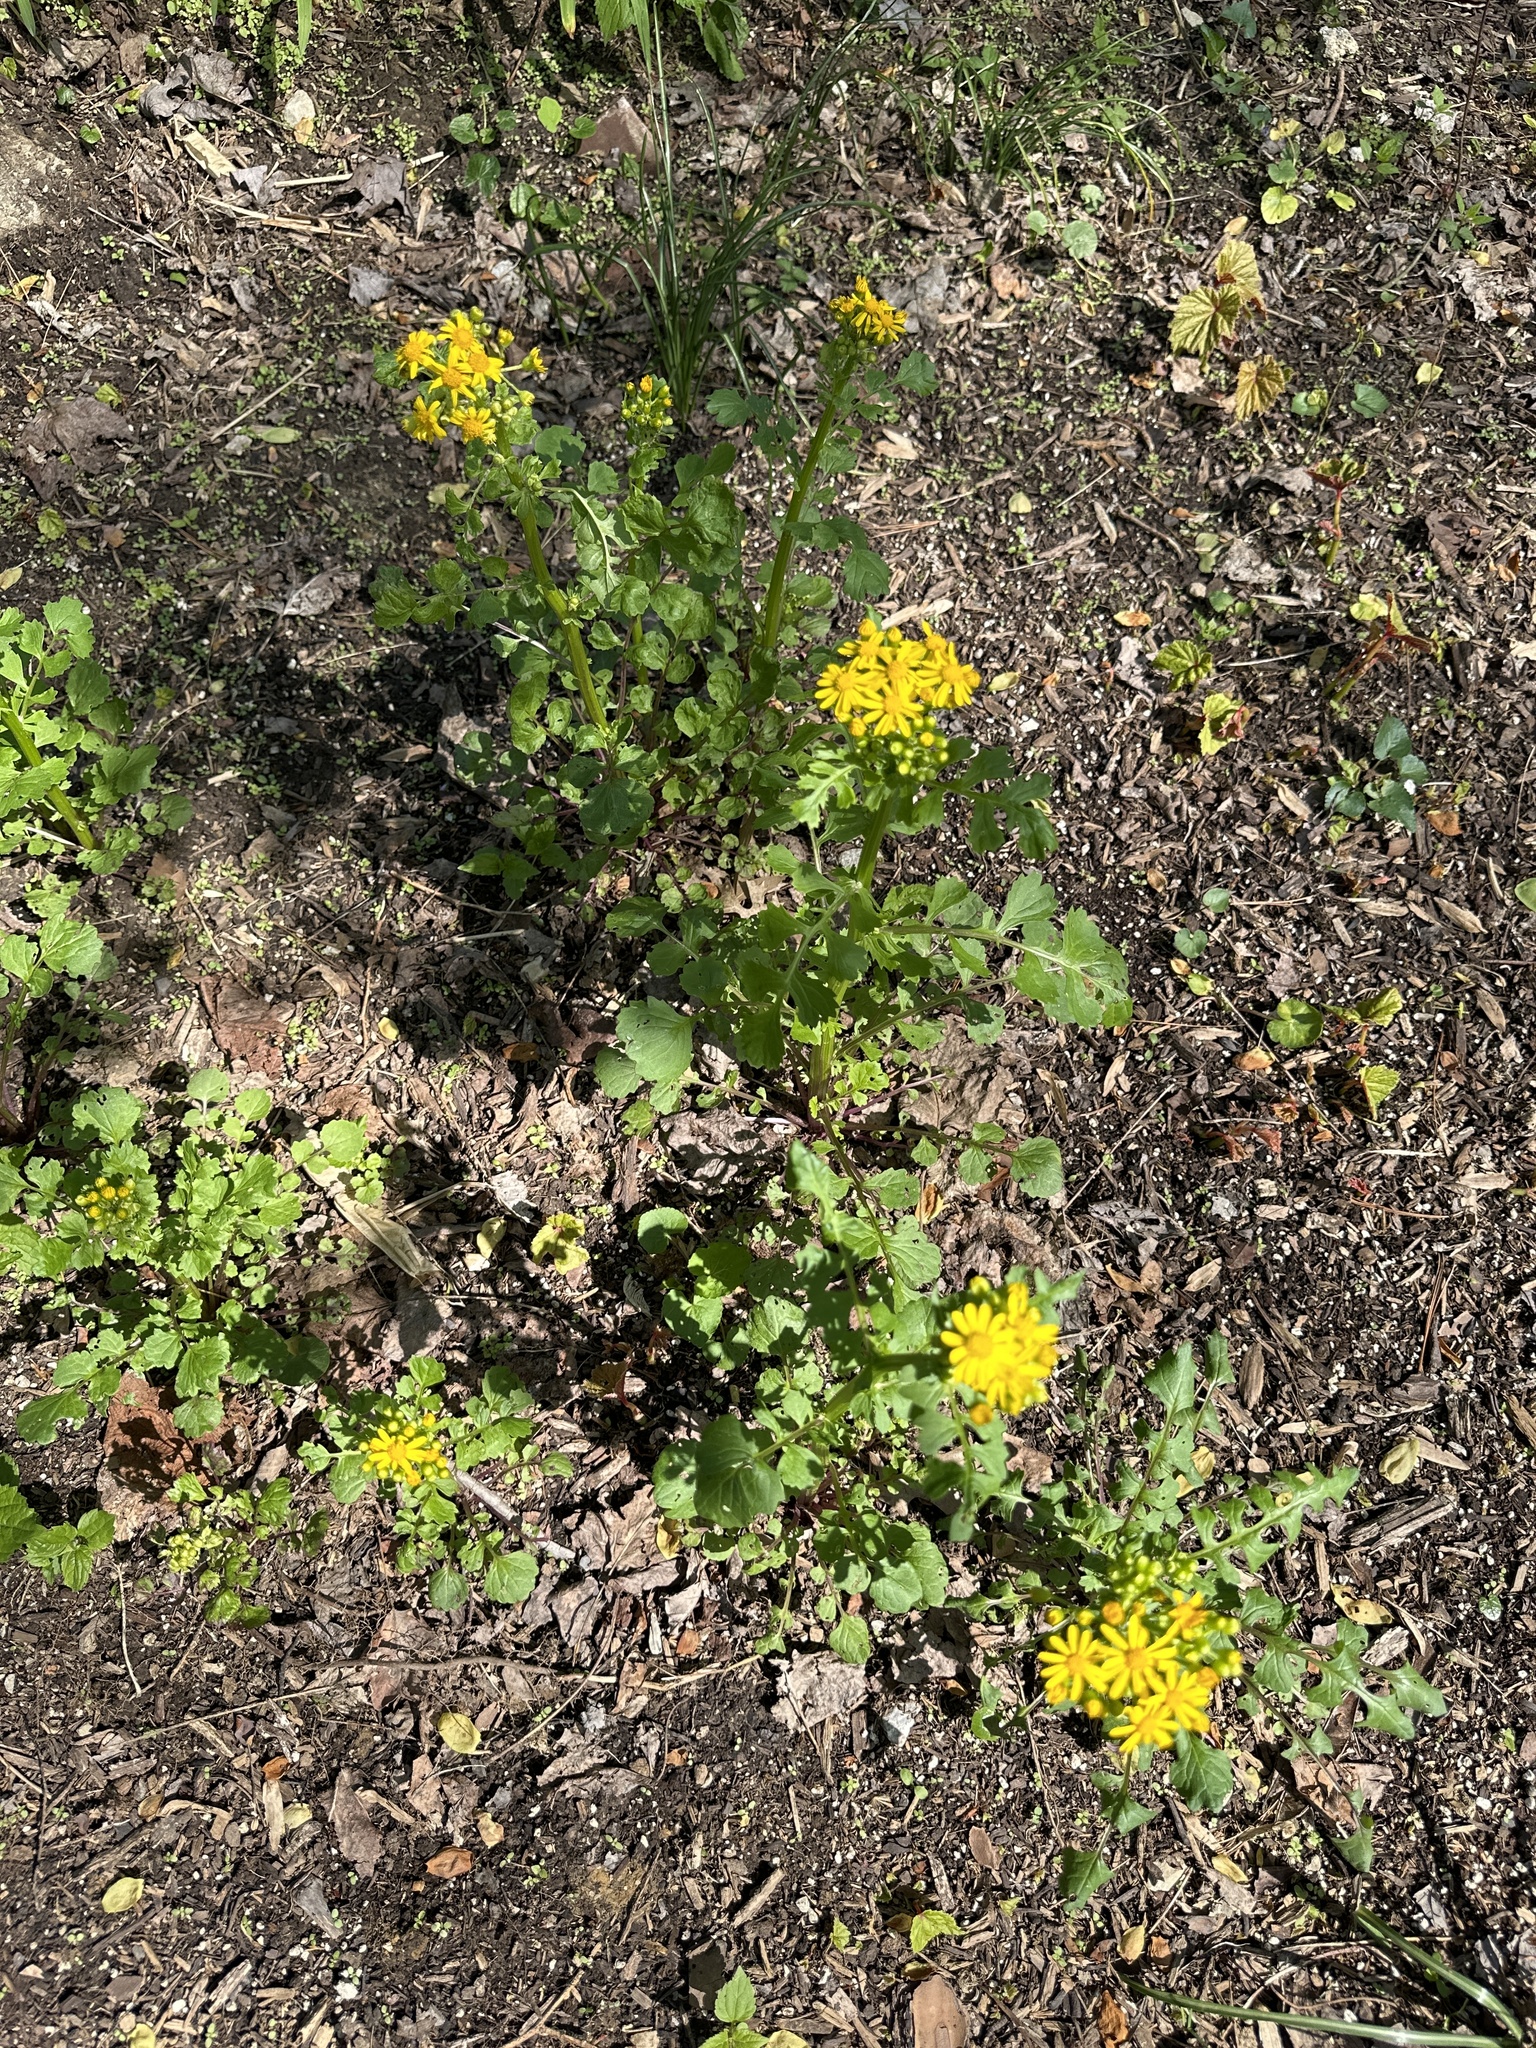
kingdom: Plantae
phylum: Tracheophyta
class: Magnoliopsida
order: Asterales
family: Asteraceae
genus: Packera
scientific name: Packera glabella
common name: Butterweed
